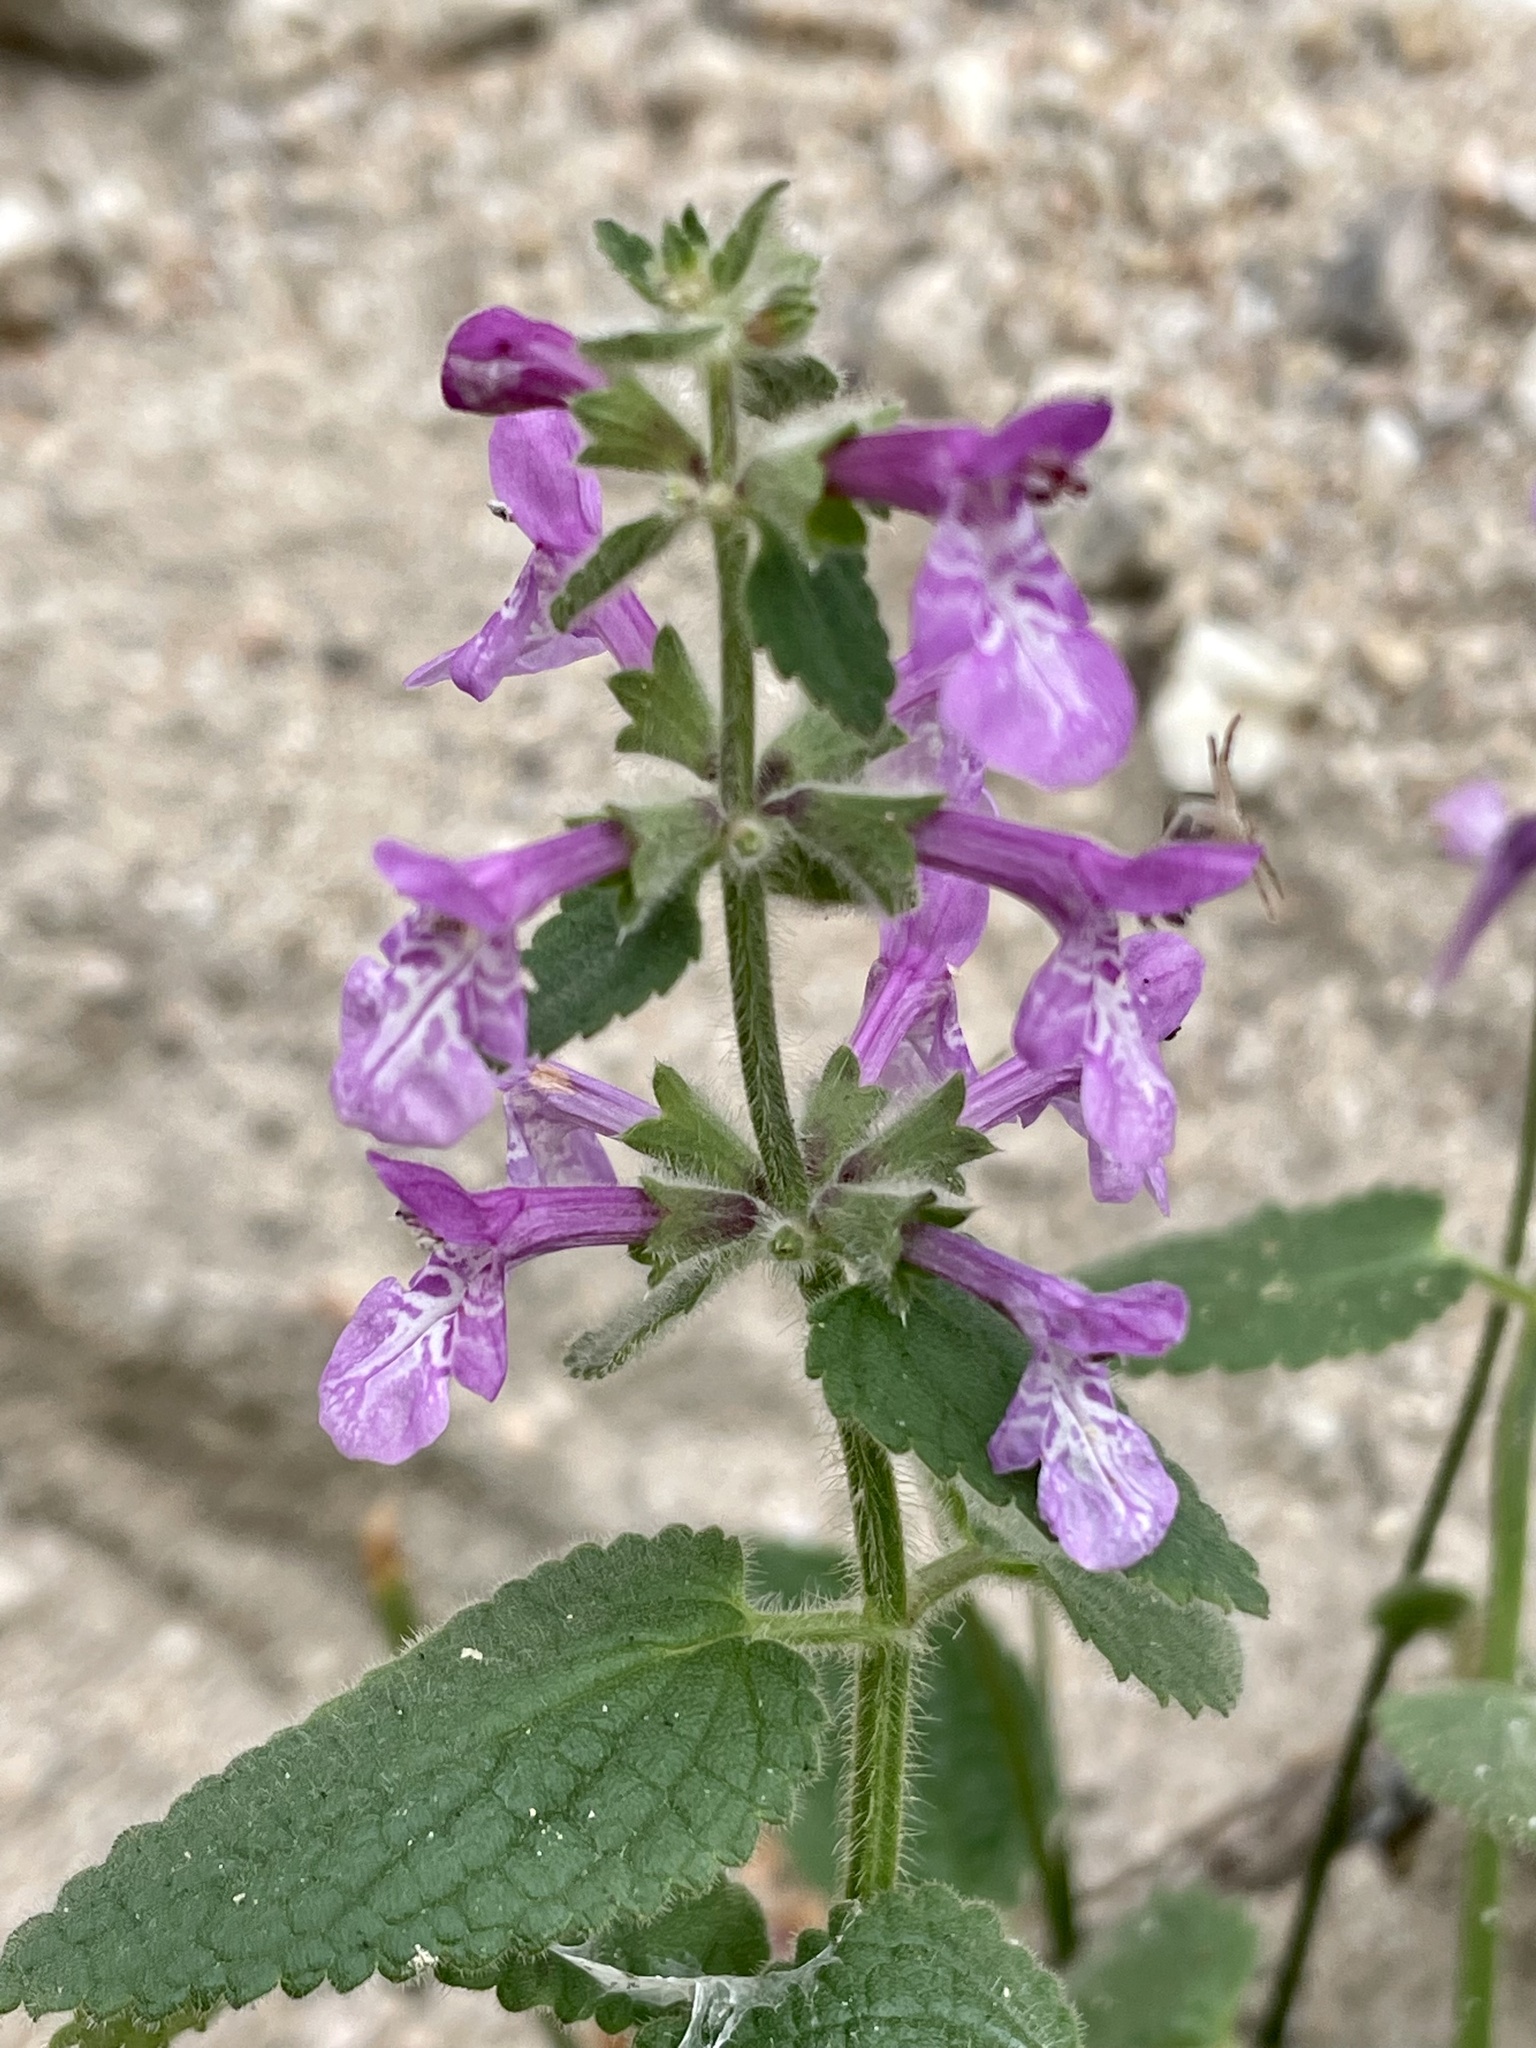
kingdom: Plantae
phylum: Tracheophyta
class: Magnoliopsida
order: Lamiales
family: Lamiaceae
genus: Stachys
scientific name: Stachys bullata
